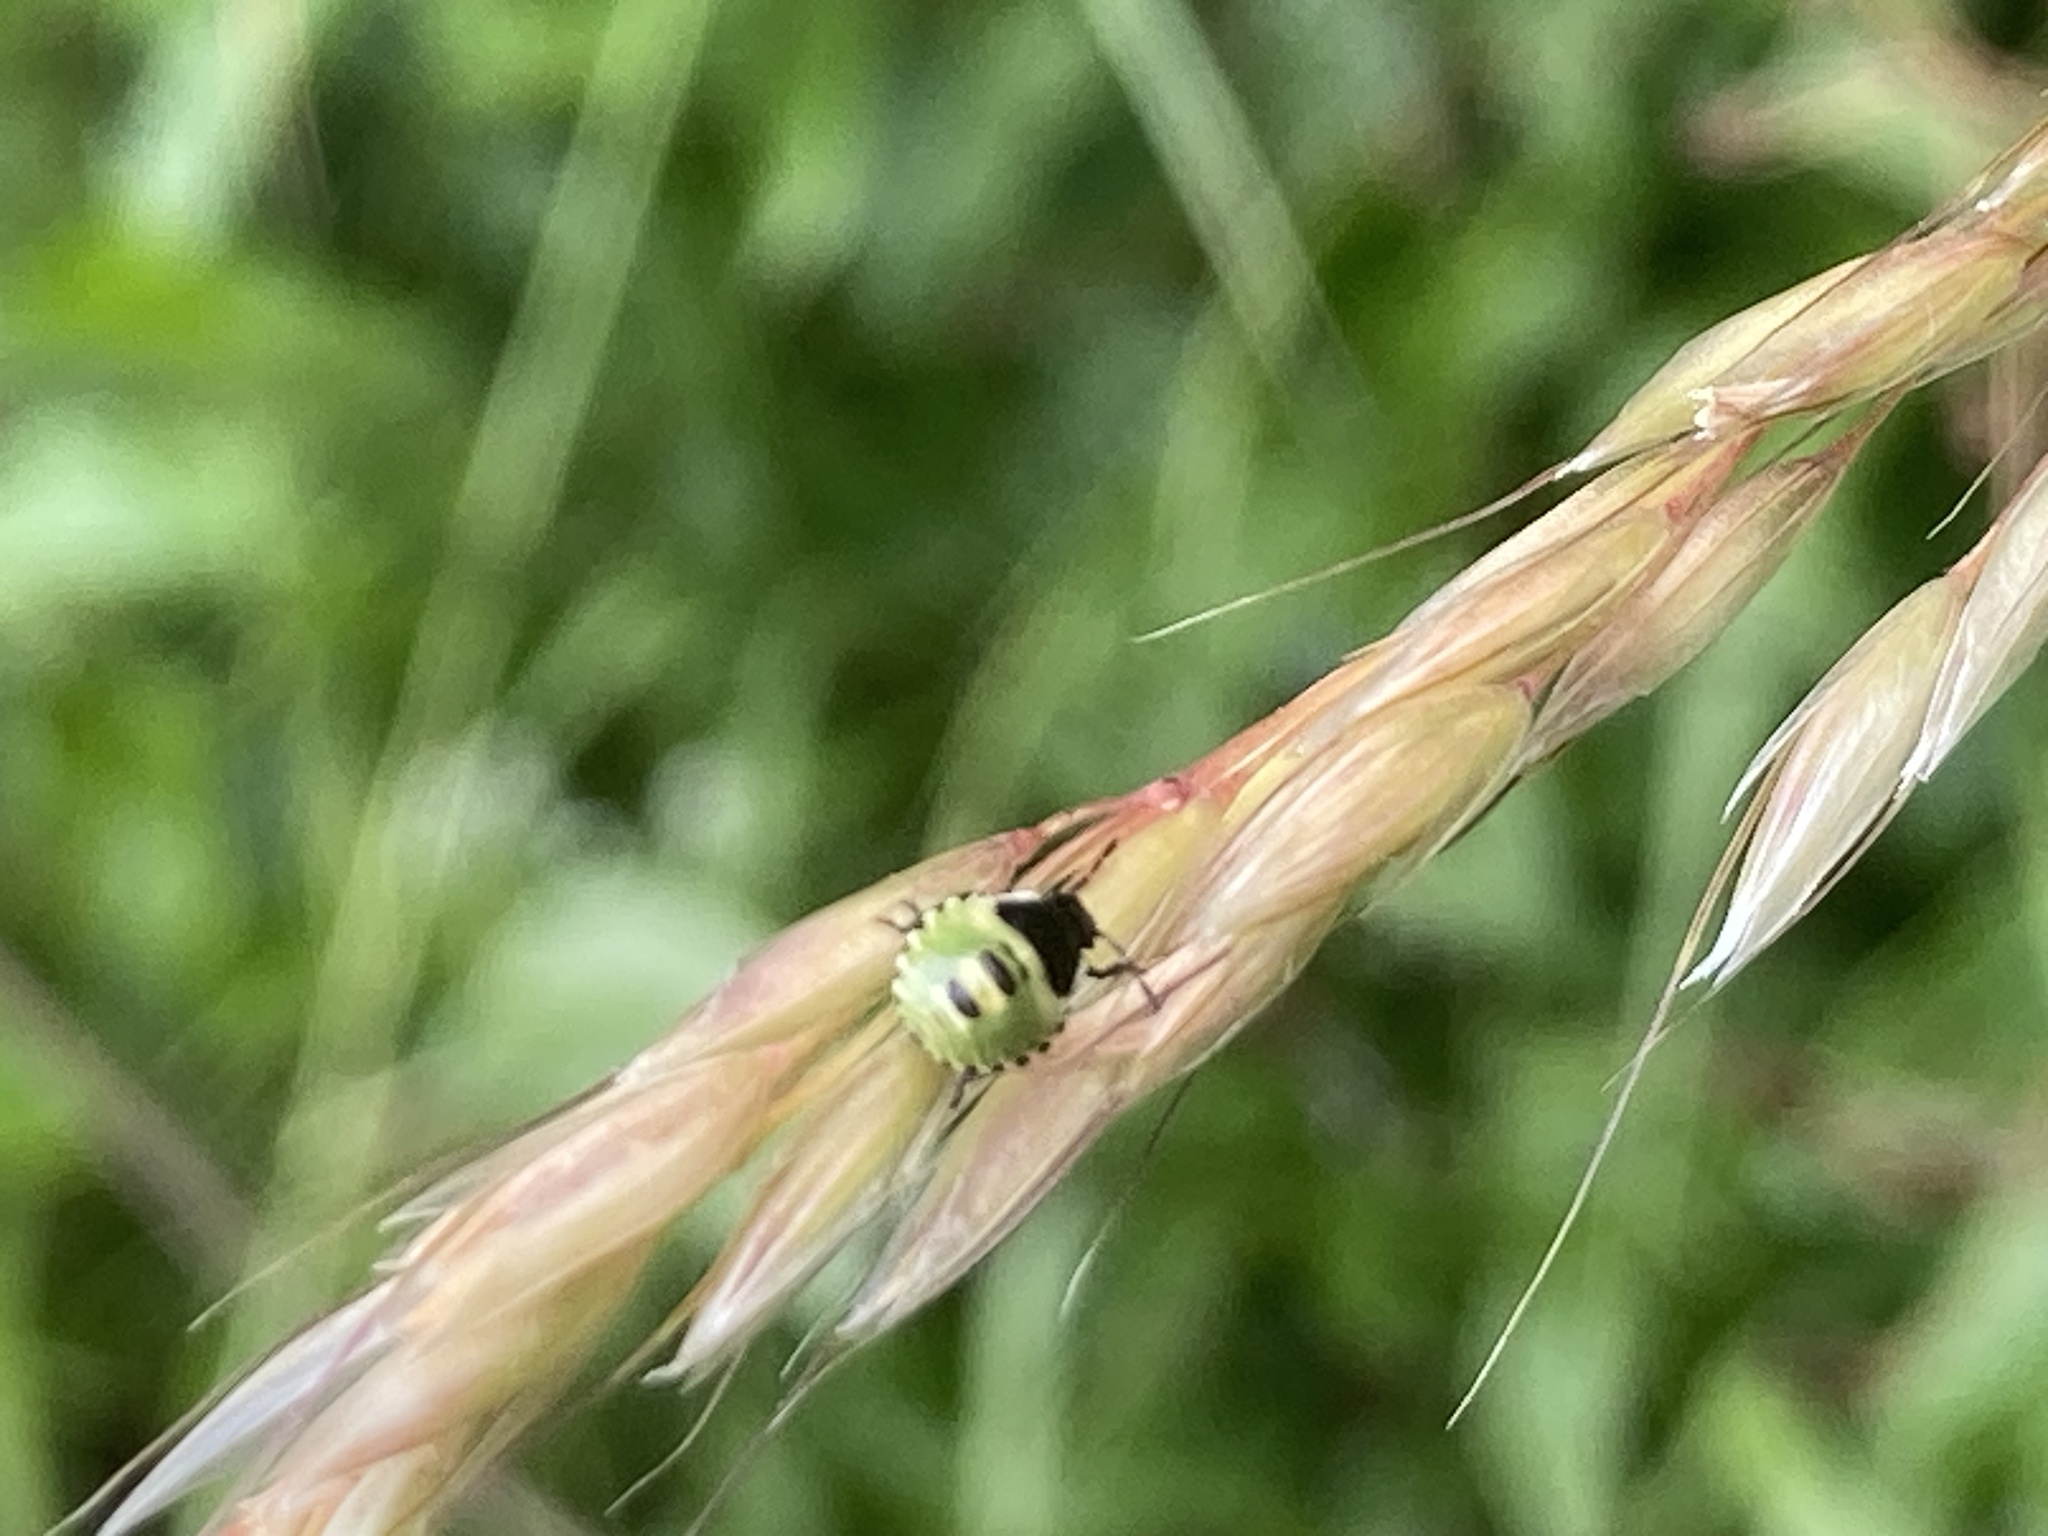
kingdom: Animalia
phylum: Arthropoda
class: Insecta
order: Hemiptera
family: Pentatomidae
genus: Palomena
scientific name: Palomena prasina
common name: Green shieldbug
